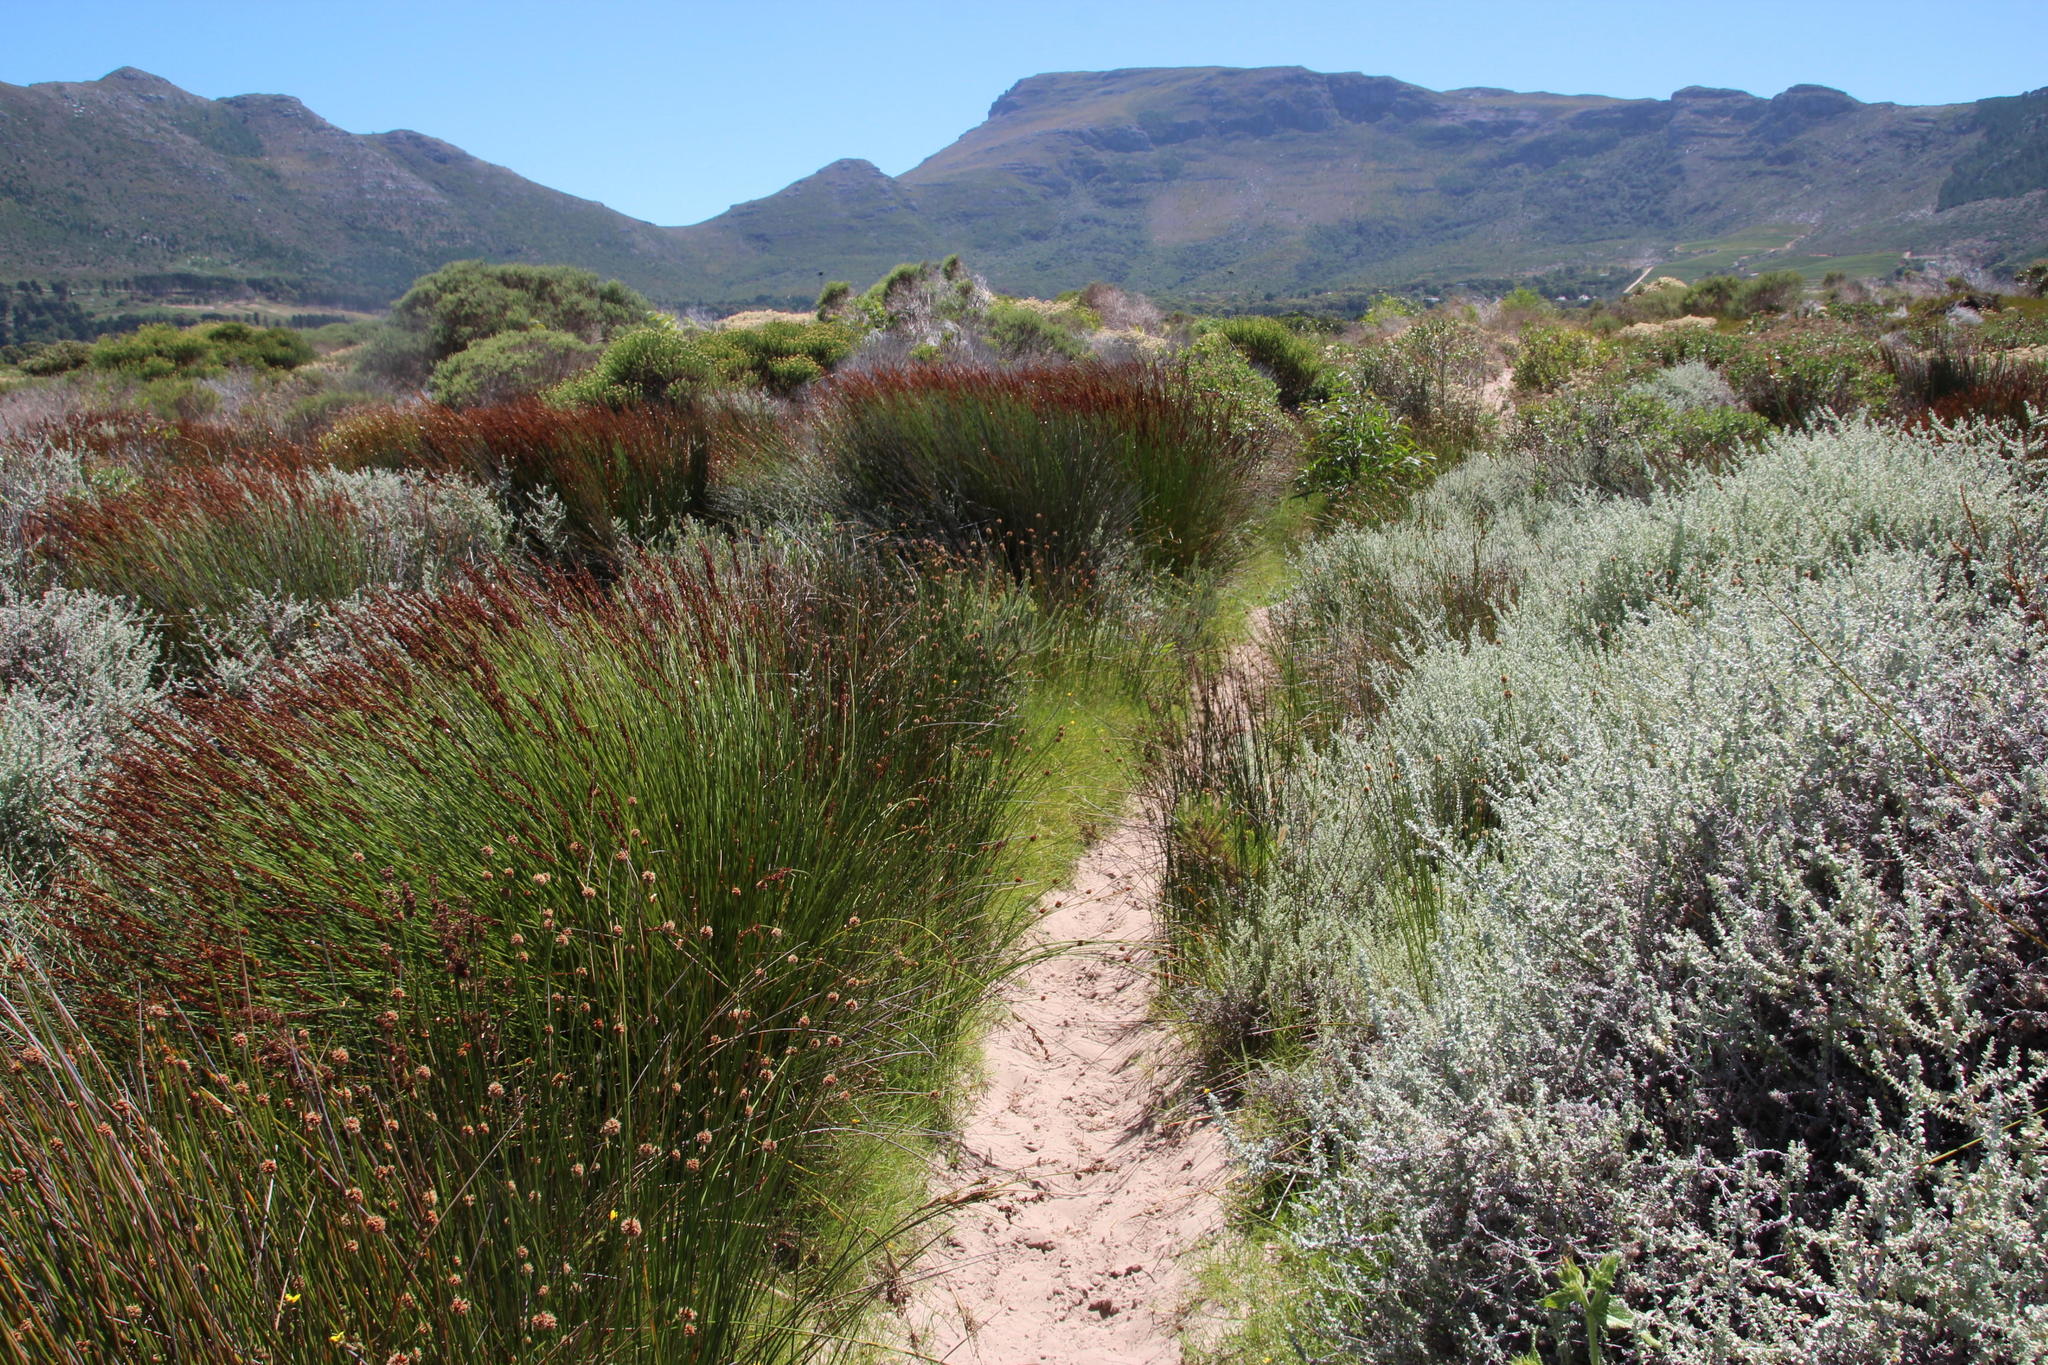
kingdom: Plantae
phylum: Tracheophyta
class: Liliopsida
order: Poales
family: Restionaceae
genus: Elegia
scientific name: Elegia tectorum
